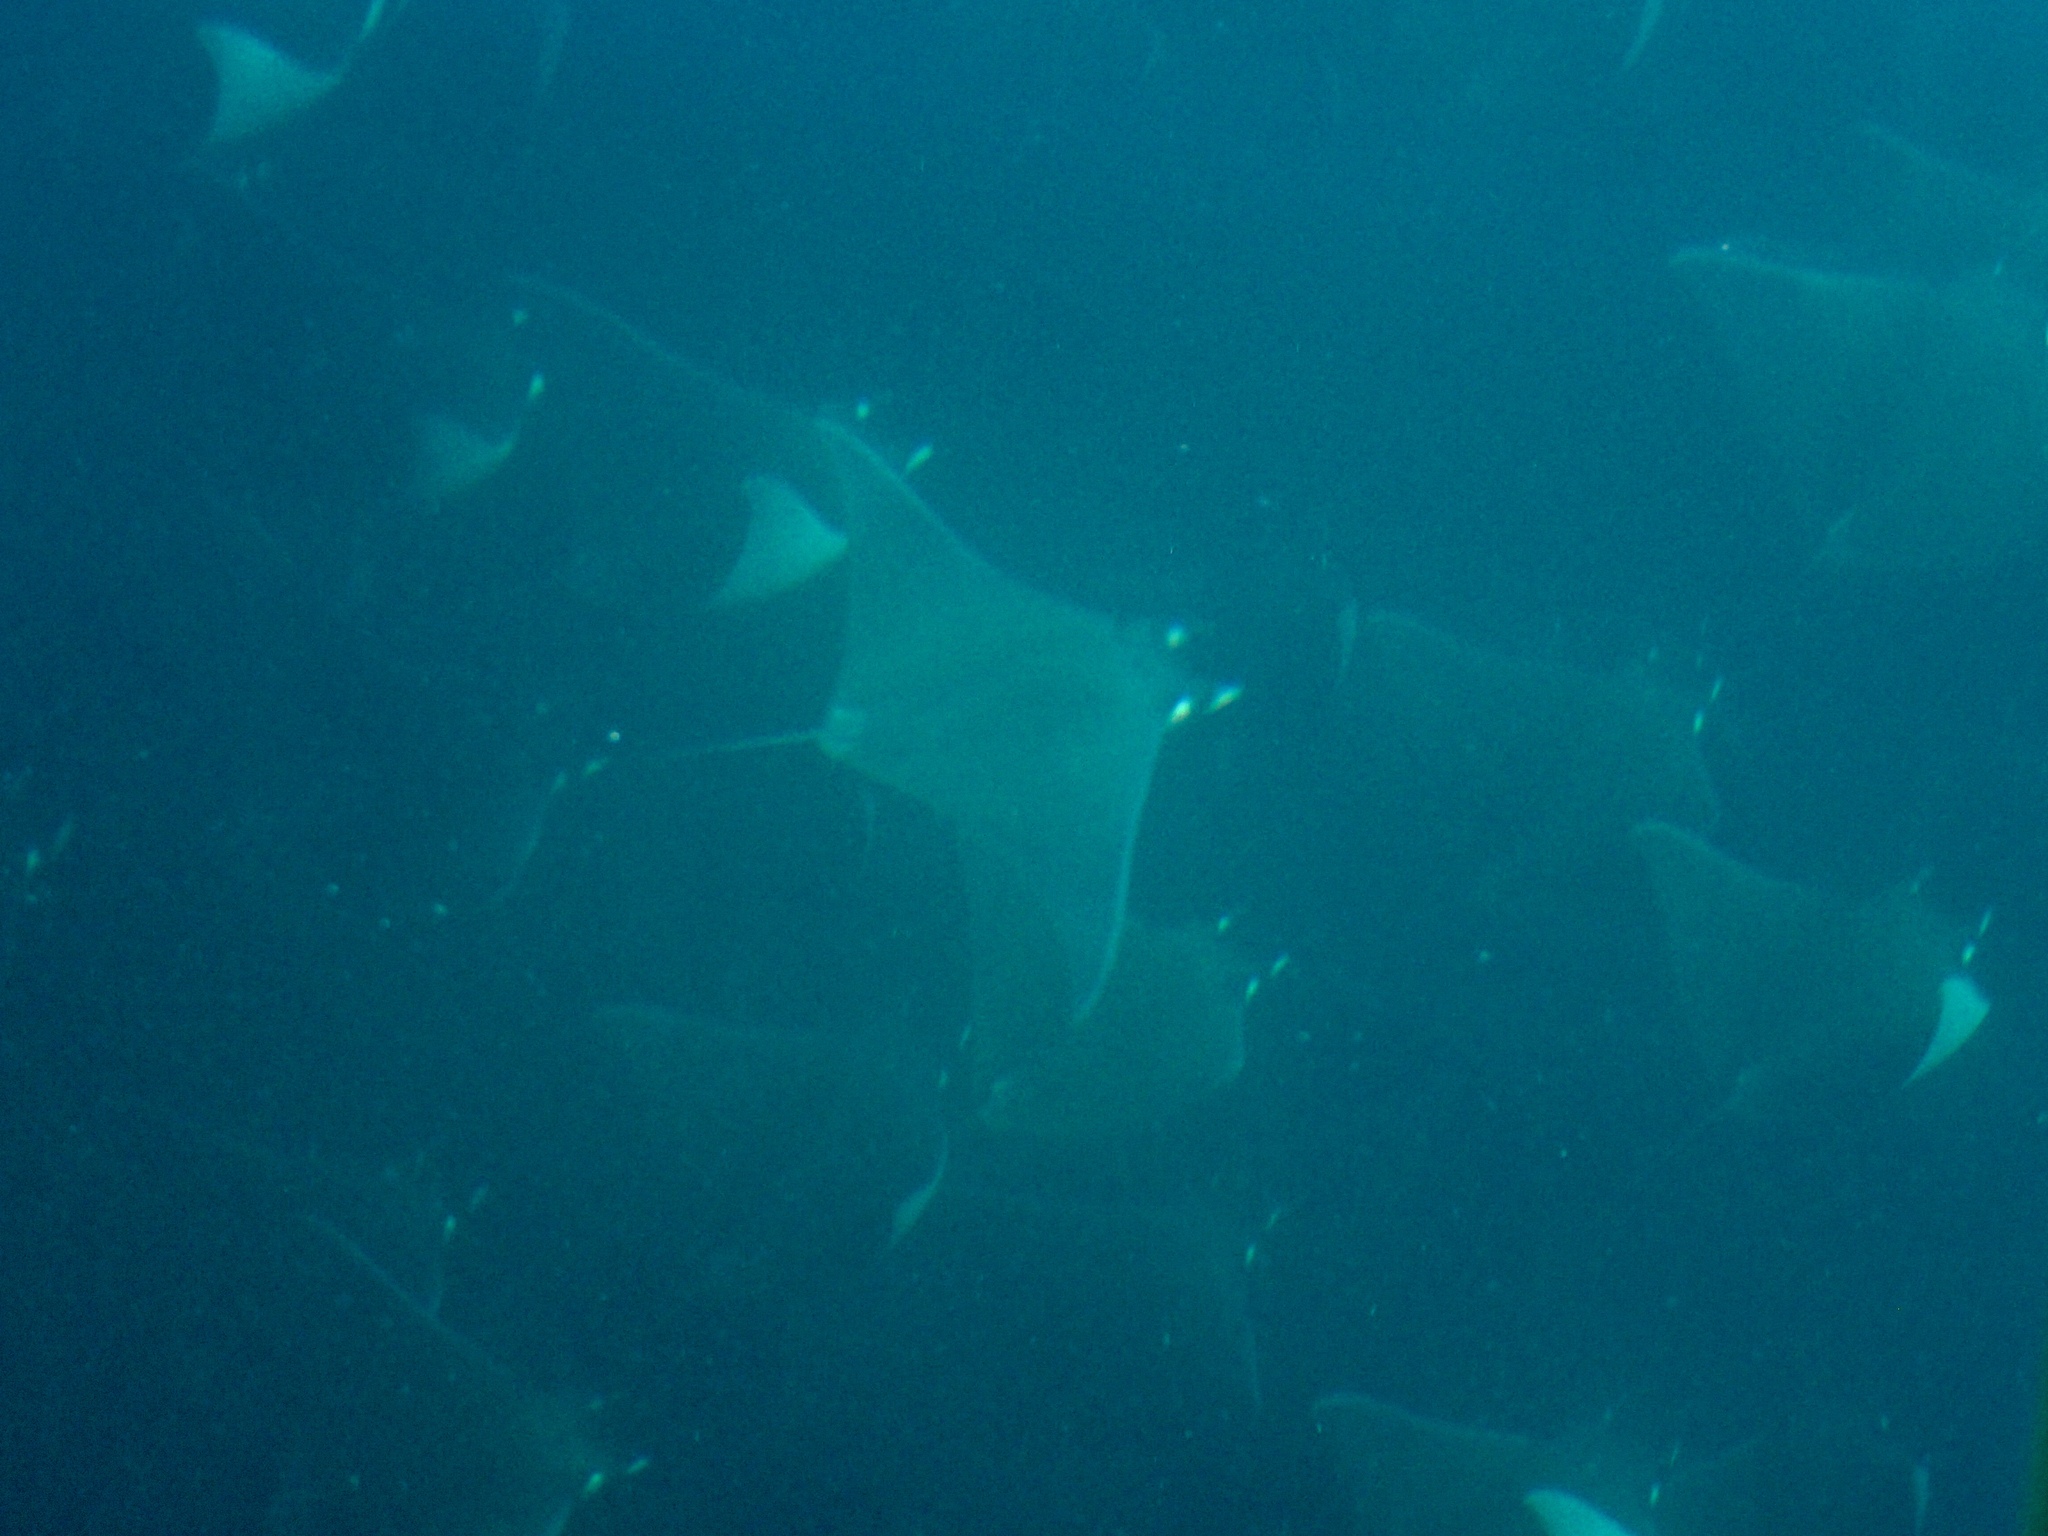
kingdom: Animalia
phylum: Chordata
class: Elasmobranchii
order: Myliobatiformes
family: Myliobatidae
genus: Mobula
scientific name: Mobula munkiana
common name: Pygmy devil ray
